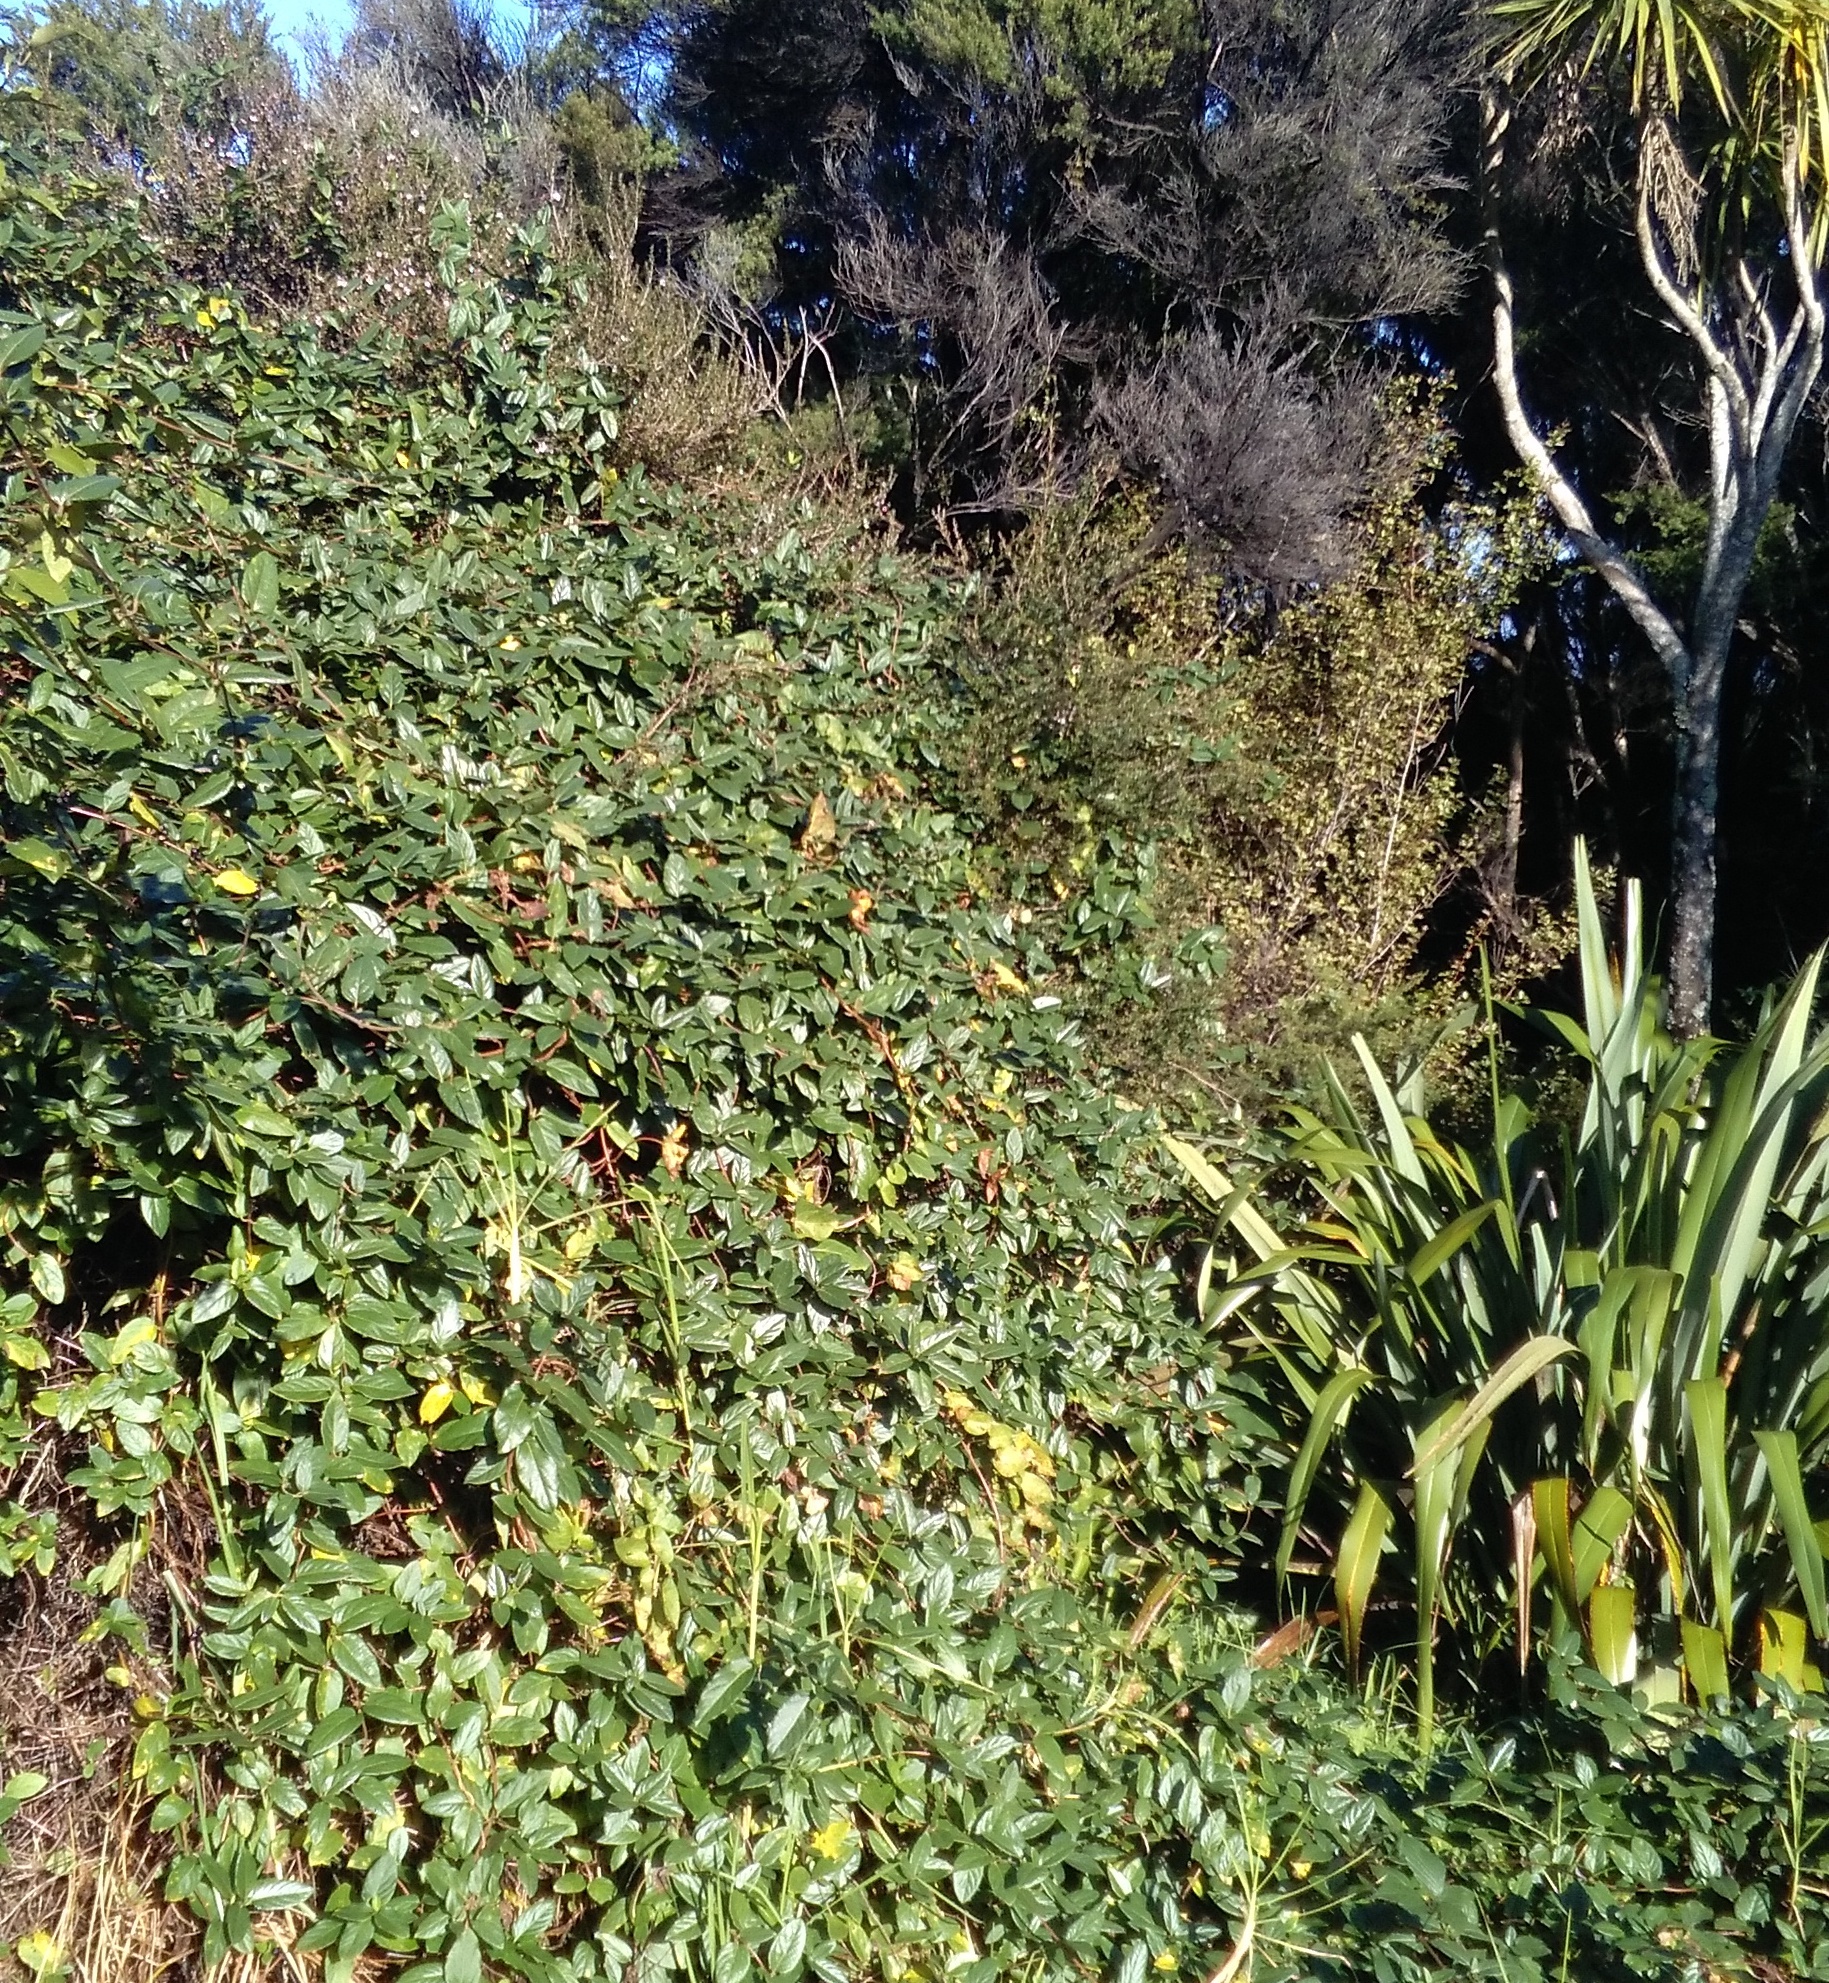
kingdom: Plantae
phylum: Tracheophyta
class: Magnoliopsida
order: Ericales
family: Primulaceae
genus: Myrsine
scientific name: Myrsine australis
